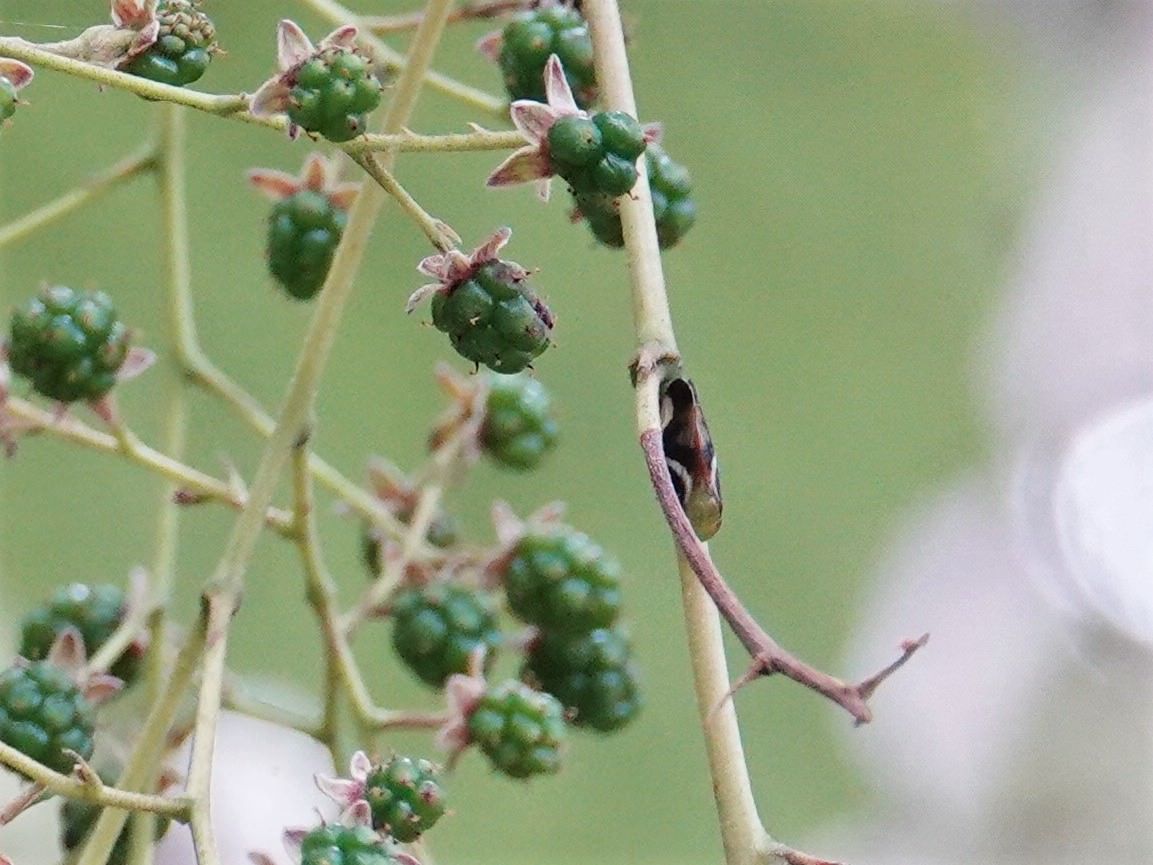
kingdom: Animalia
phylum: Arthropoda
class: Insecta
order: Hemiptera
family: Aphrophoridae
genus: Carystoterpa
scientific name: Carystoterpa fingens
